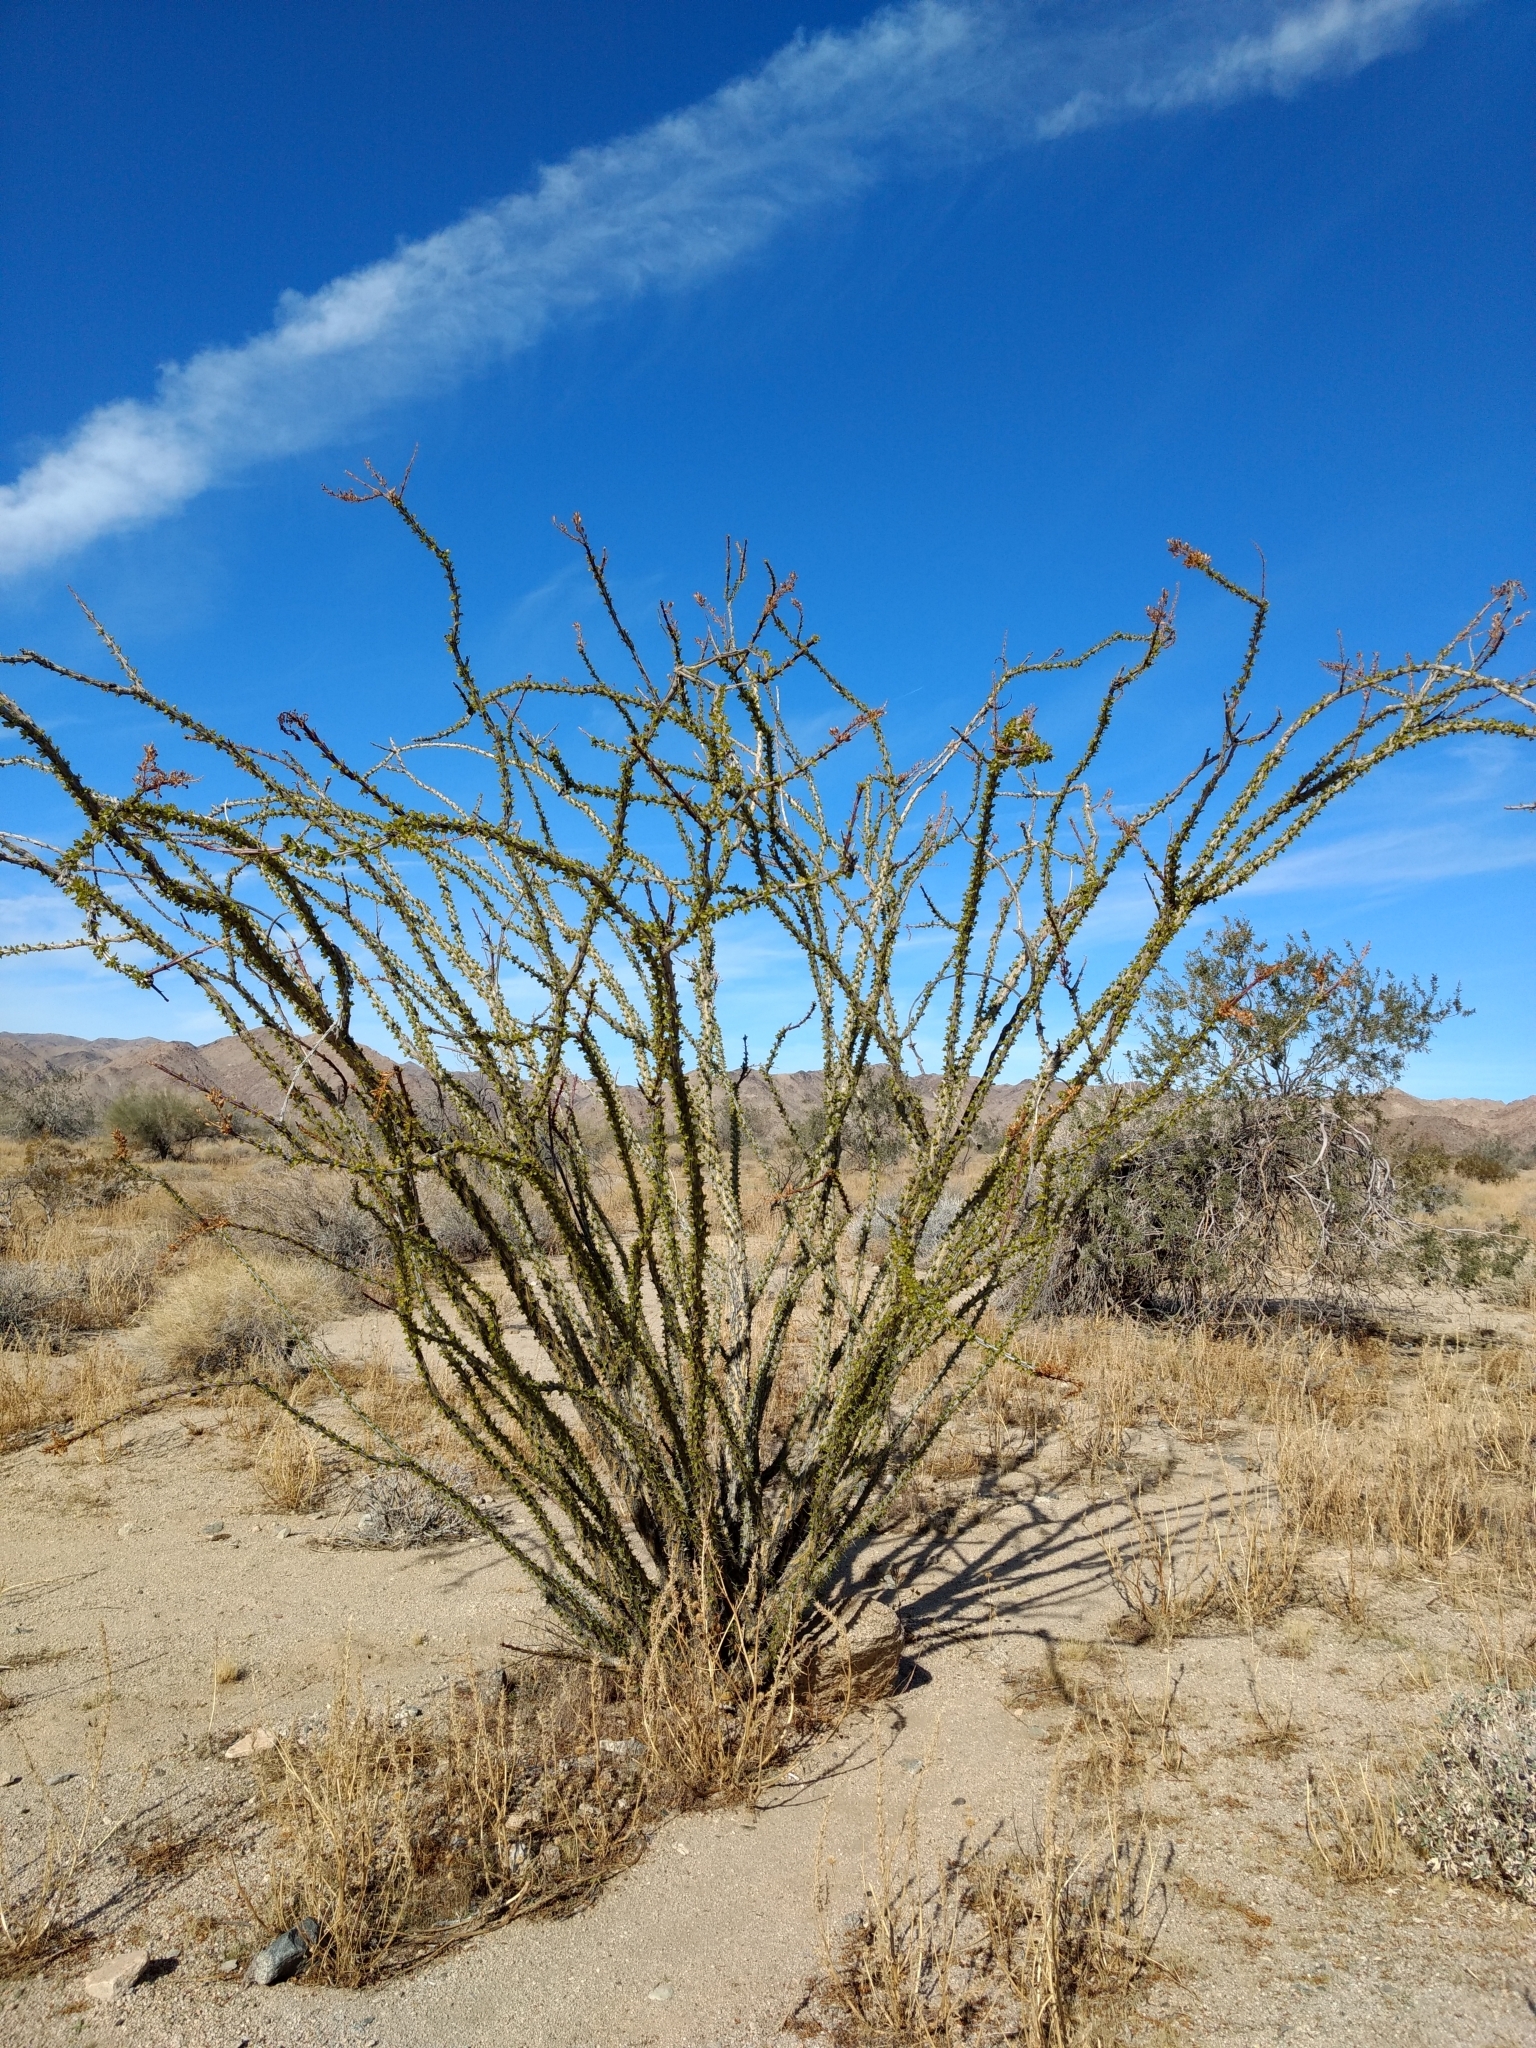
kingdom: Plantae
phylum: Tracheophyta
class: Magnoliopsida
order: Ericales
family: Fouquieriaceae
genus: Fouquieria
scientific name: Fouquieria splendens
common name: Vine-cactus
